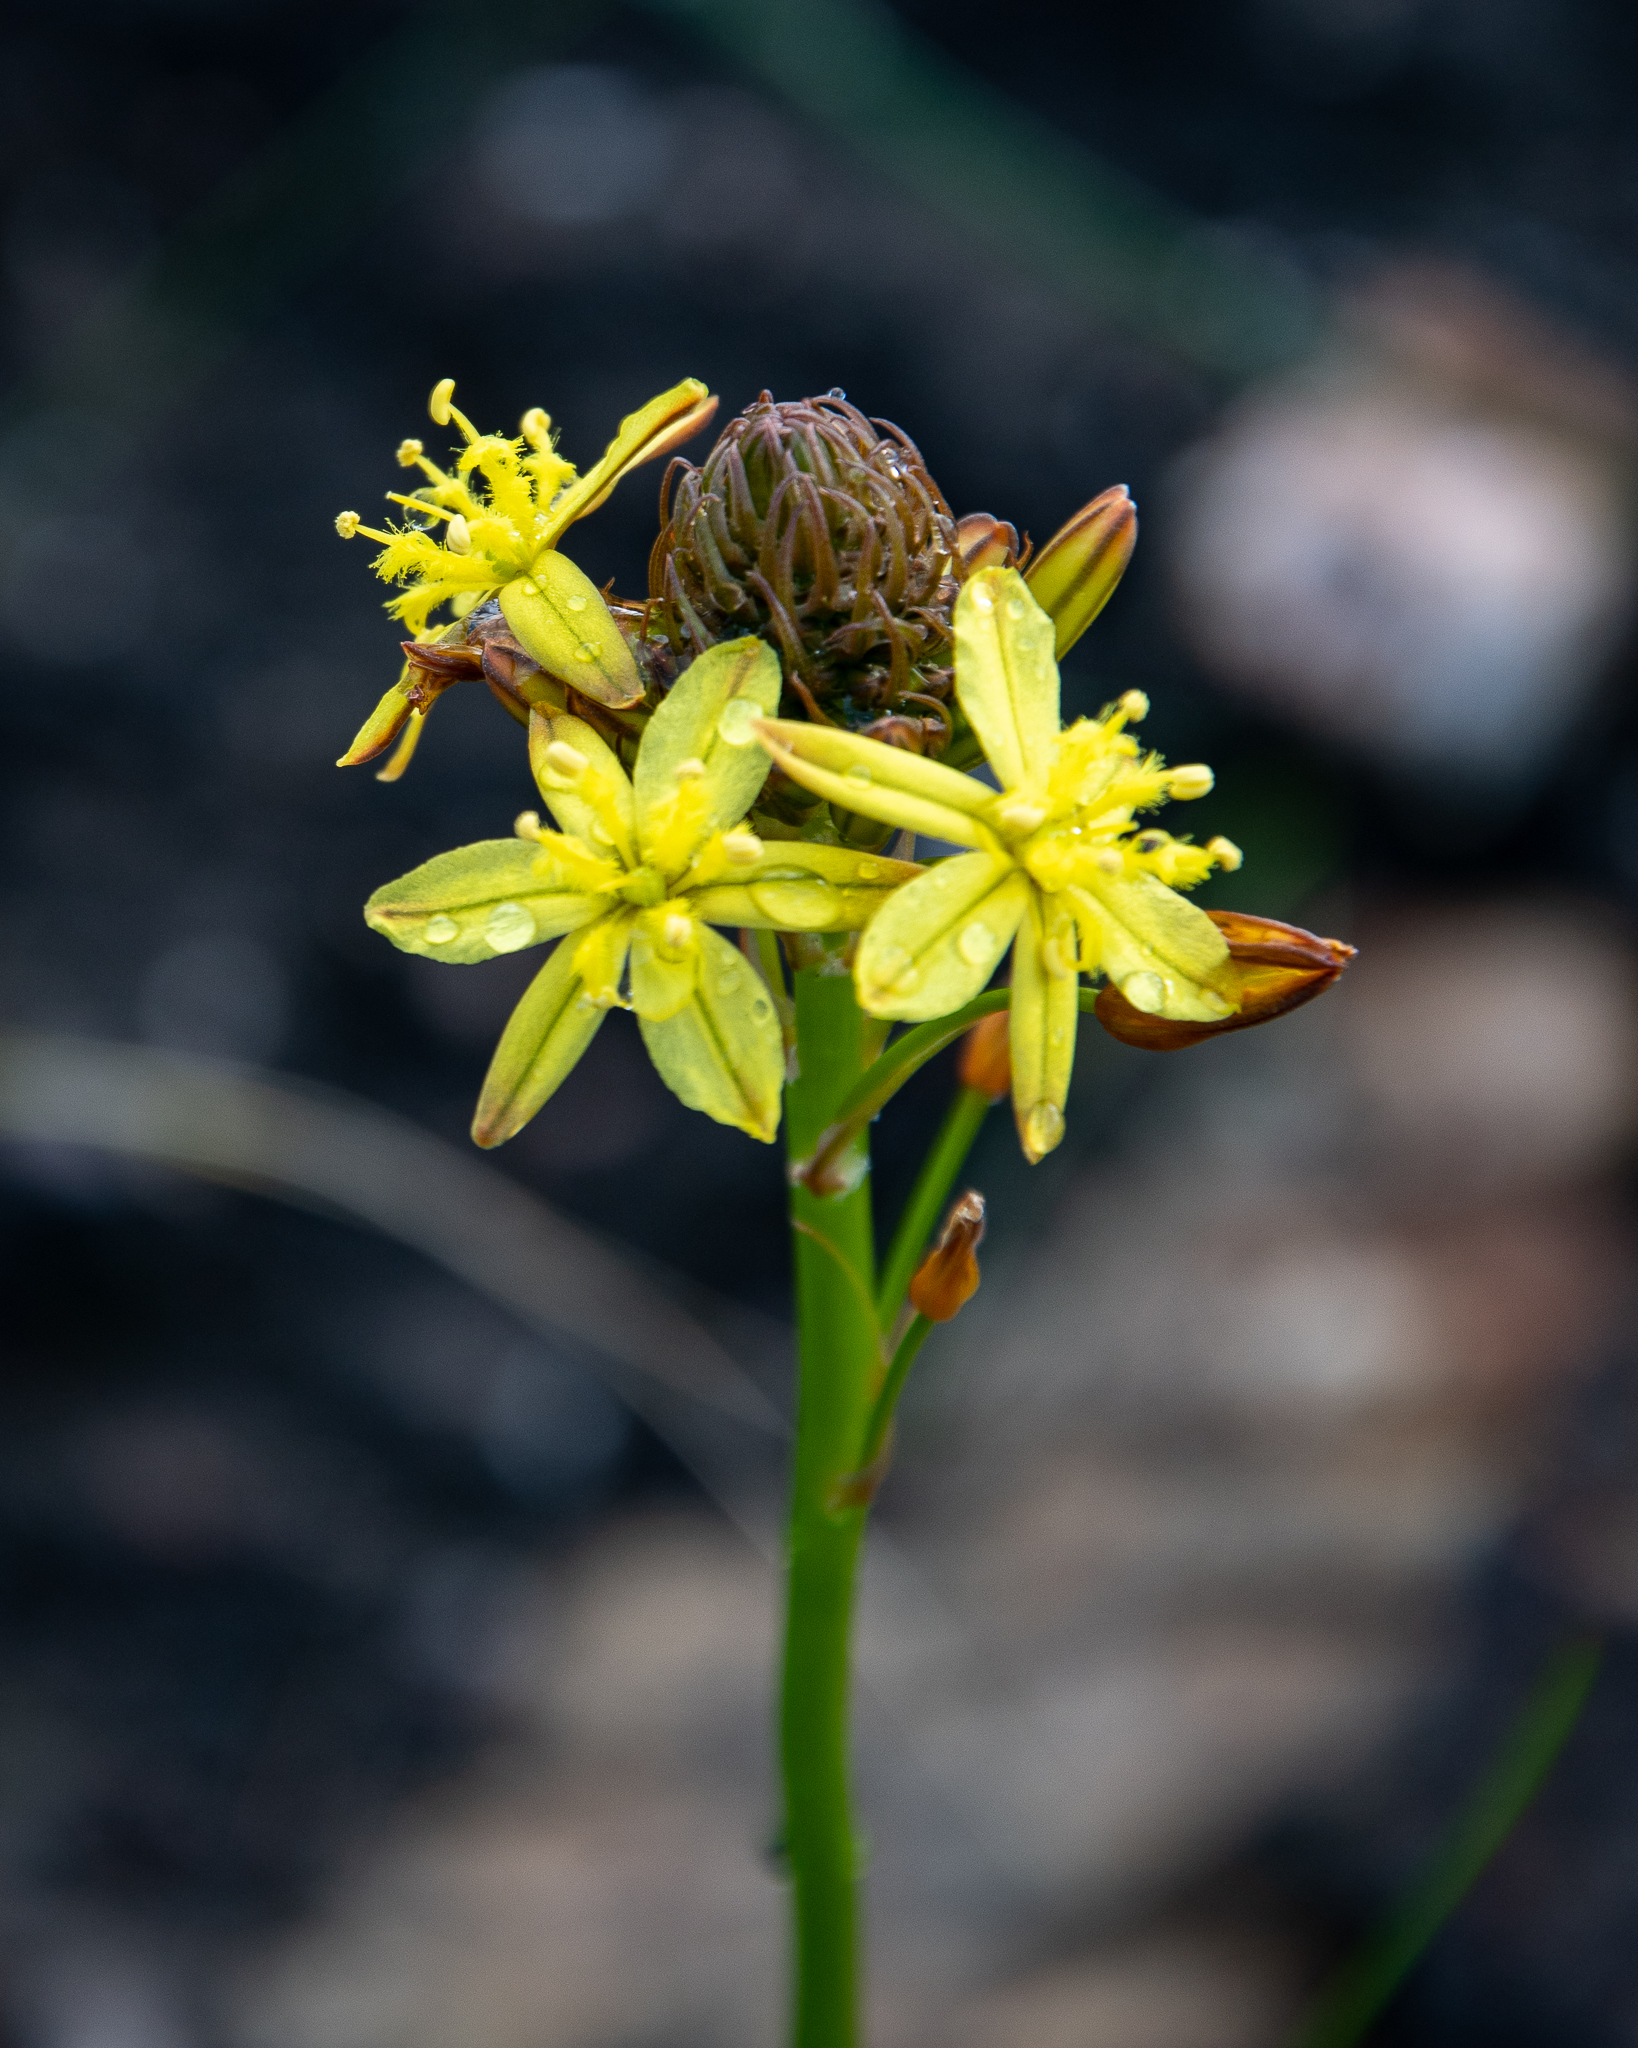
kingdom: Plantae
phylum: Tracheophyta
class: Liliopsida
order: Asparagales
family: Asphodelaceae
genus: Bulbine
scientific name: Bulbine annua
